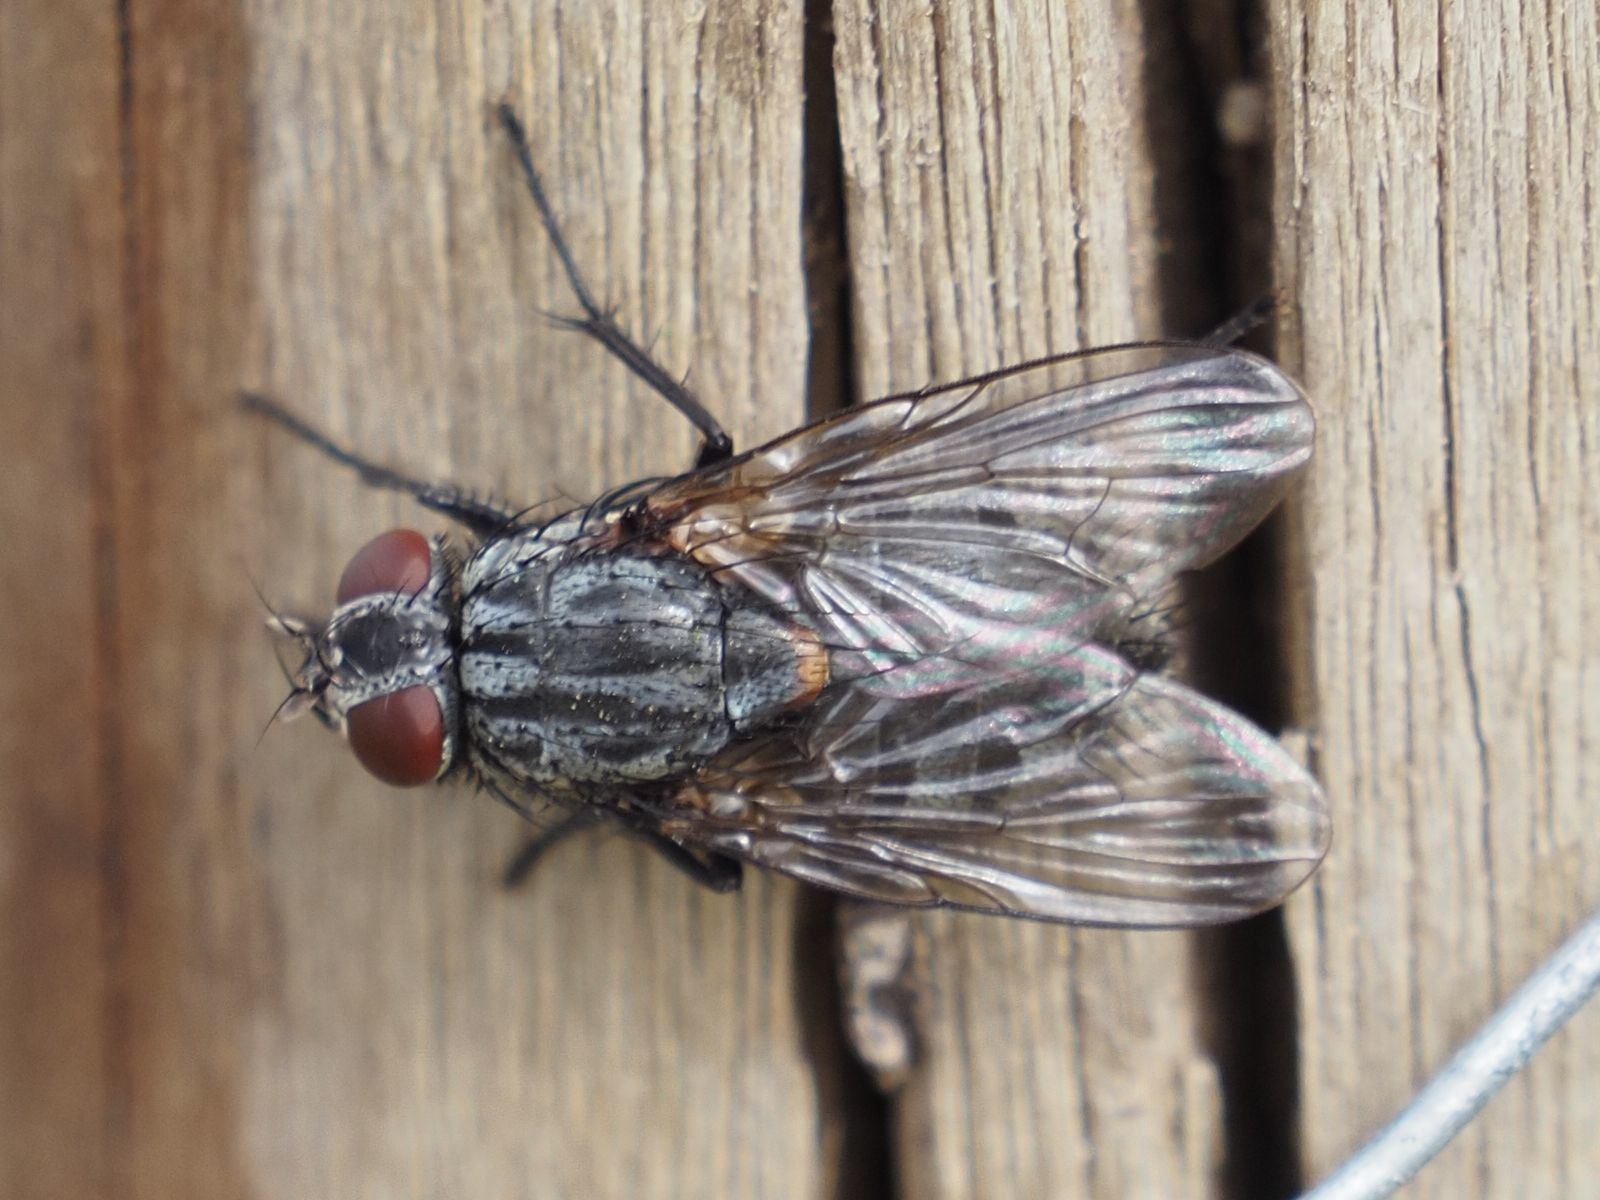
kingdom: Animalia
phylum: Arthropoda
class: Insecta
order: Diptera
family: Muscidae
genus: Muscina
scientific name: Muscina levida
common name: House fly
